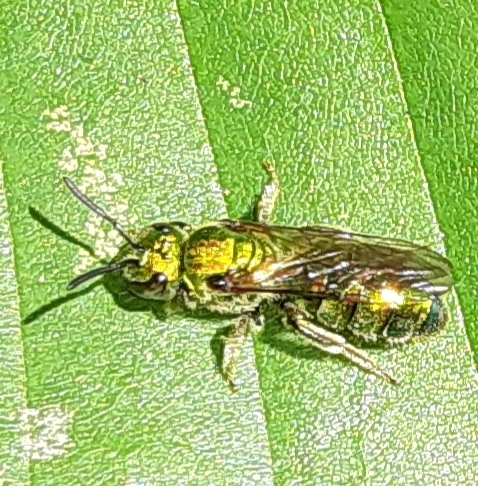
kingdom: Animalia
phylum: Arthropoda
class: Insecta
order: Hymenoptera
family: Halictidae
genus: Augochlora
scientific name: Augochlora pura
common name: Pure green sweat bee
